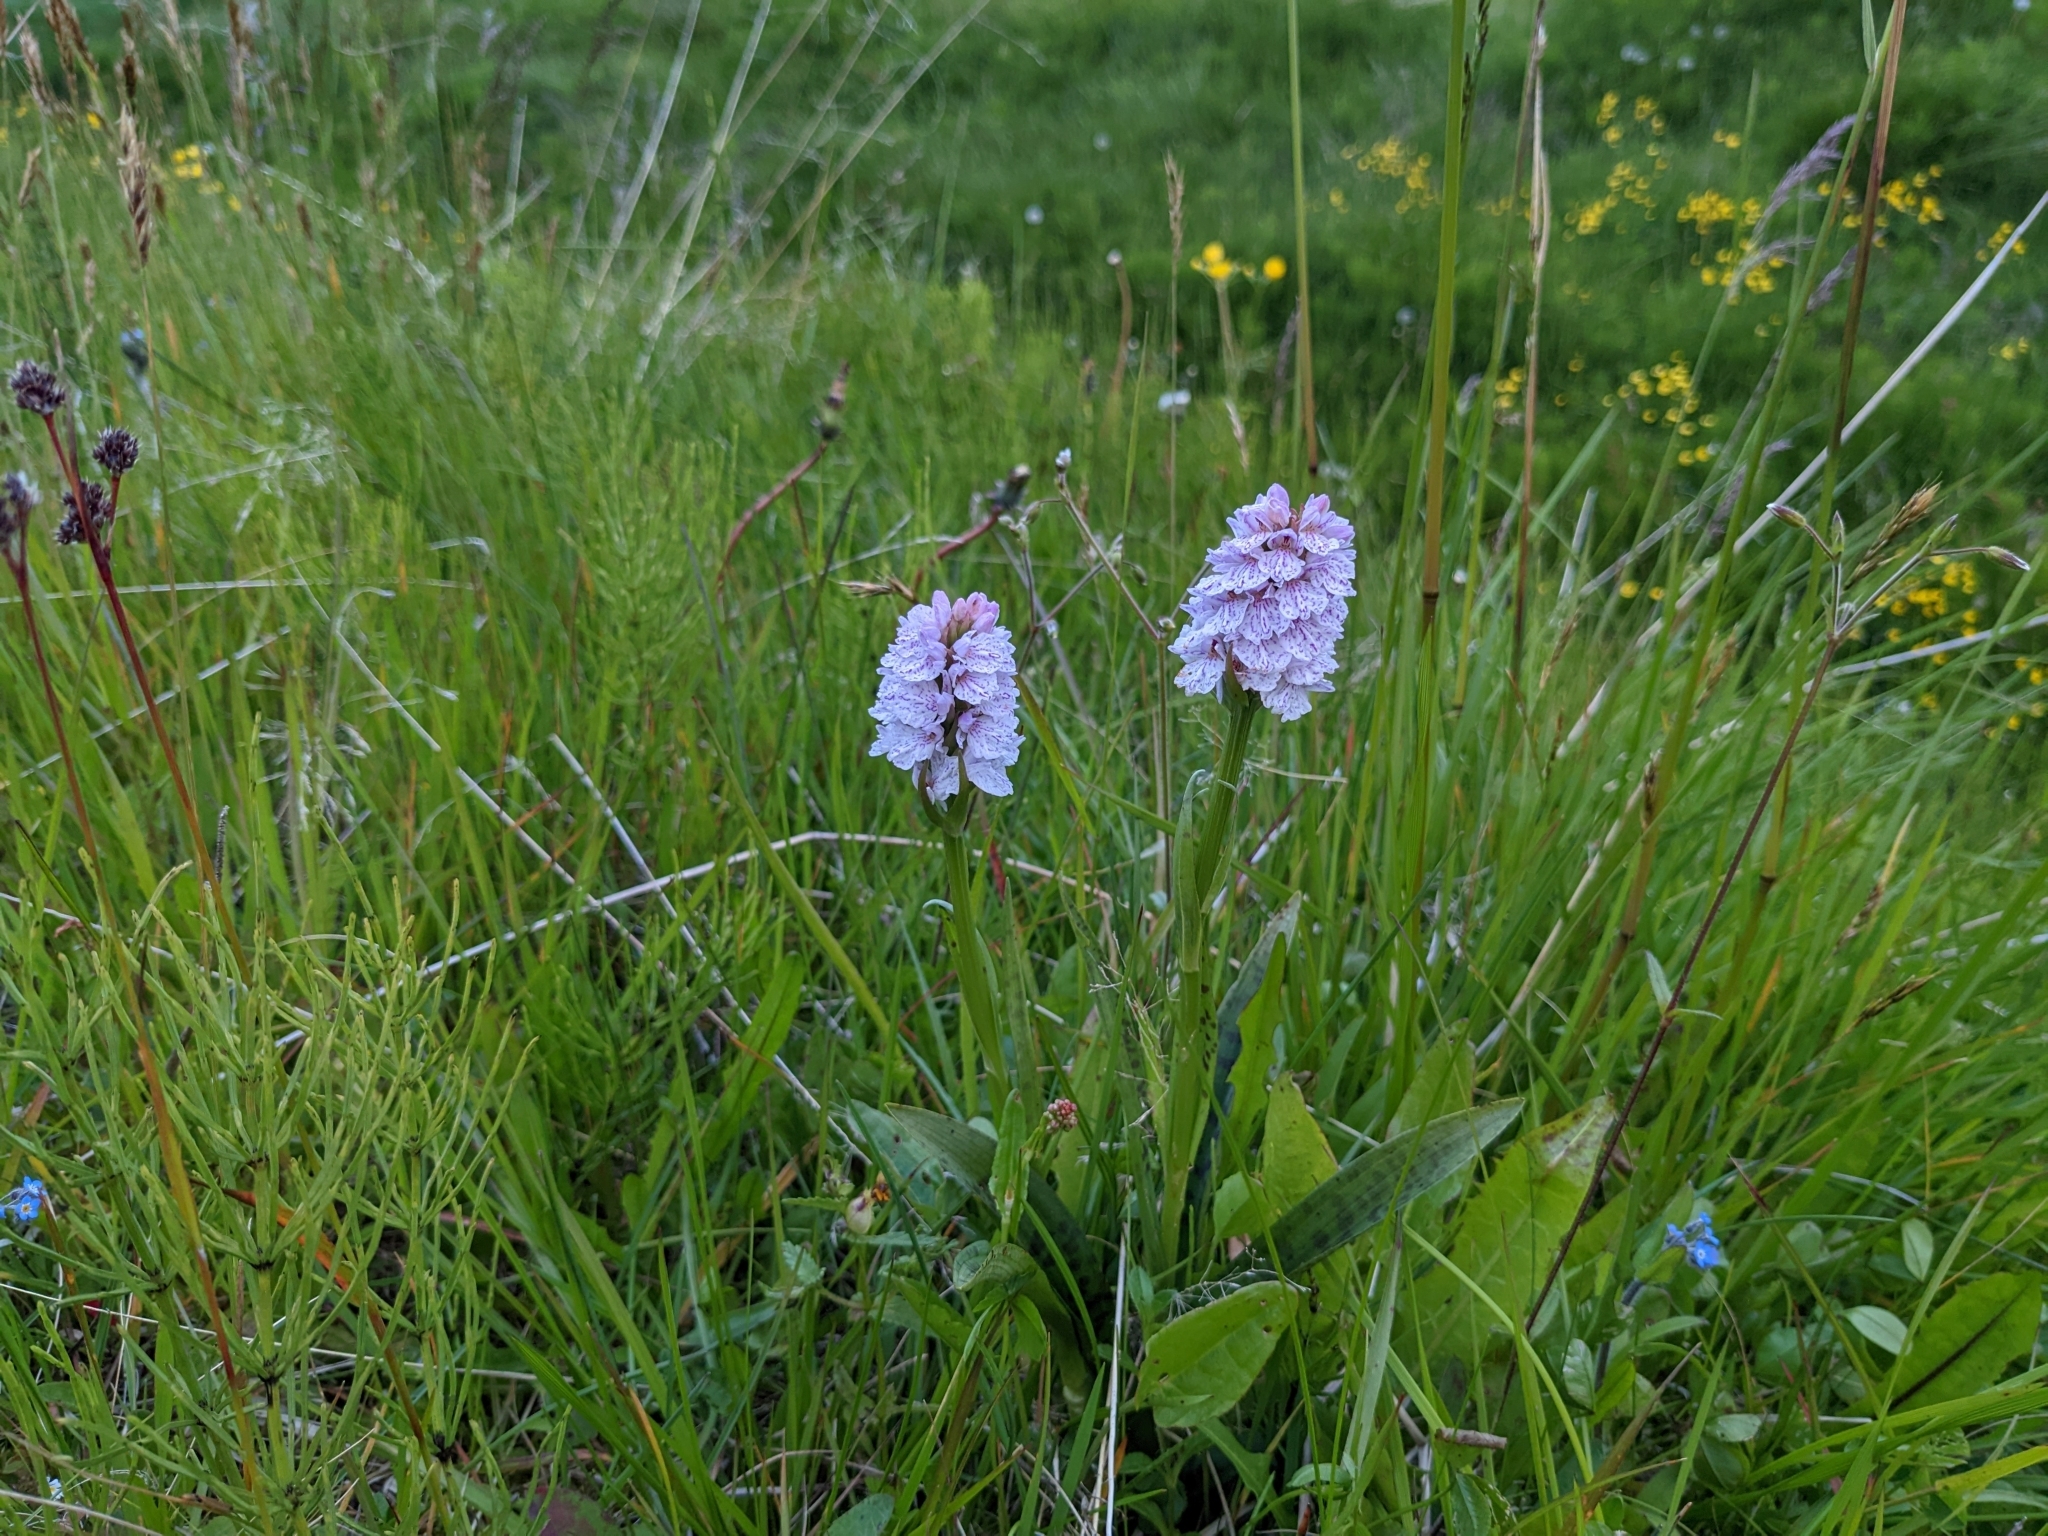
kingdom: Plantae
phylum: Tracheophyta
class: Liliopsida
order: Asparagales
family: Orchidaceae
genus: Dactylorhiza
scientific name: Dactylorhiza maculata
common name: Heath spotted-orchid
